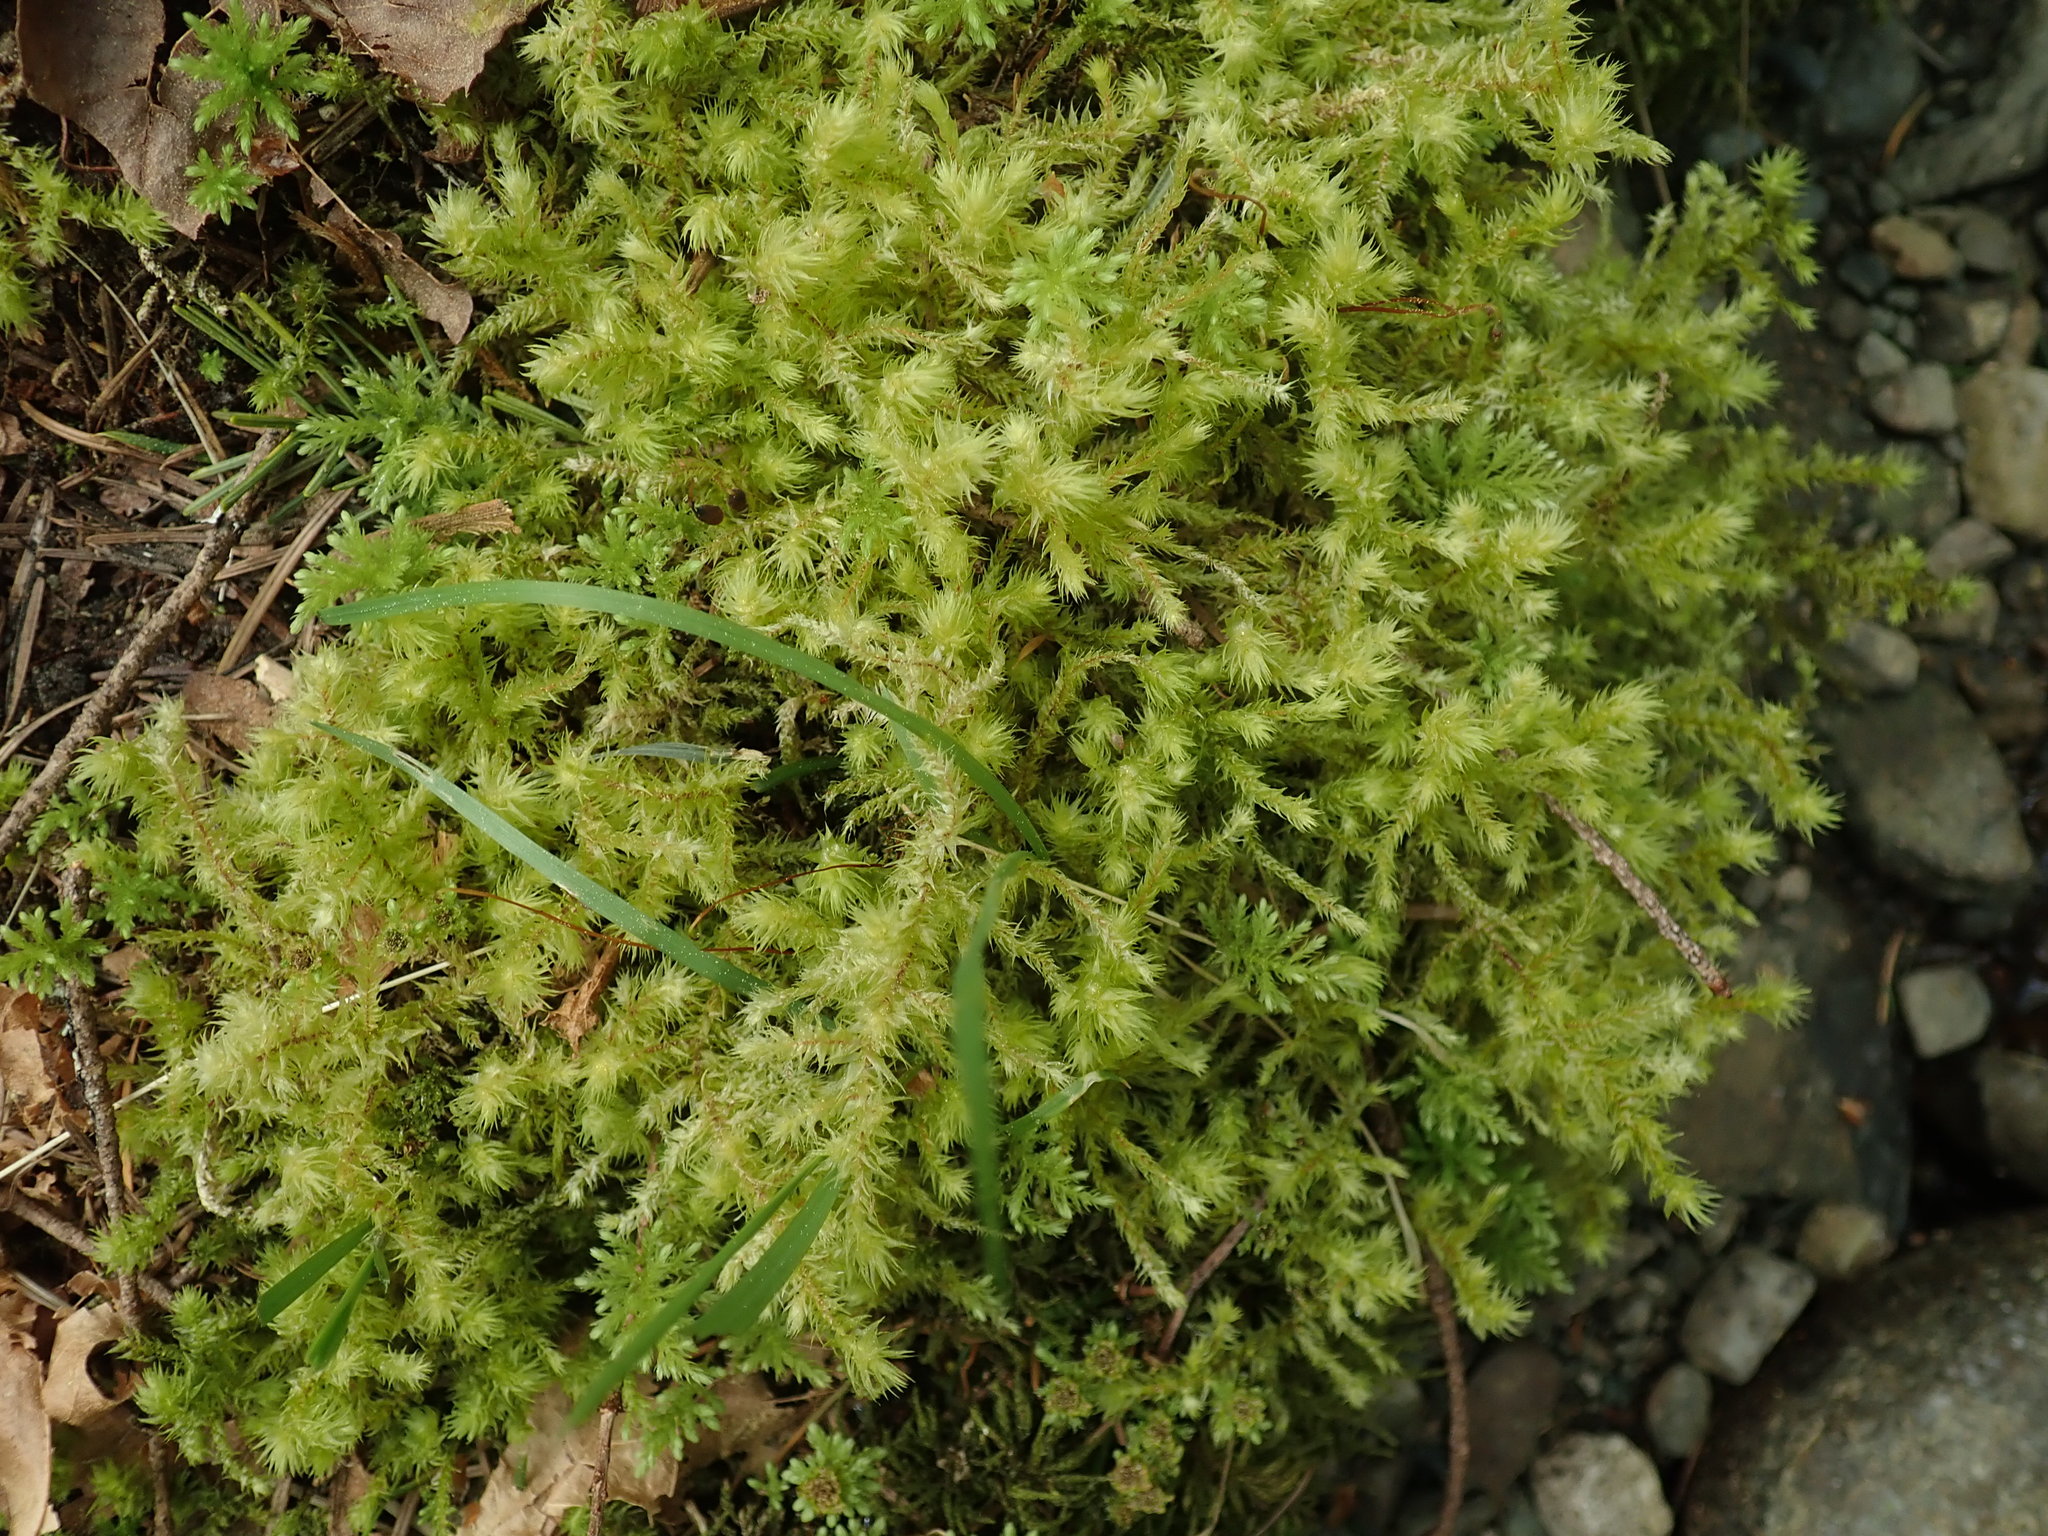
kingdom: Plantae
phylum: Bryophyta
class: Bryopsida
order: Hypnales
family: Hylocomiaceae
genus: Hylocomiadelphus
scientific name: Hylocomiadelphus triquetrus
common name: Rough goose neck moss
